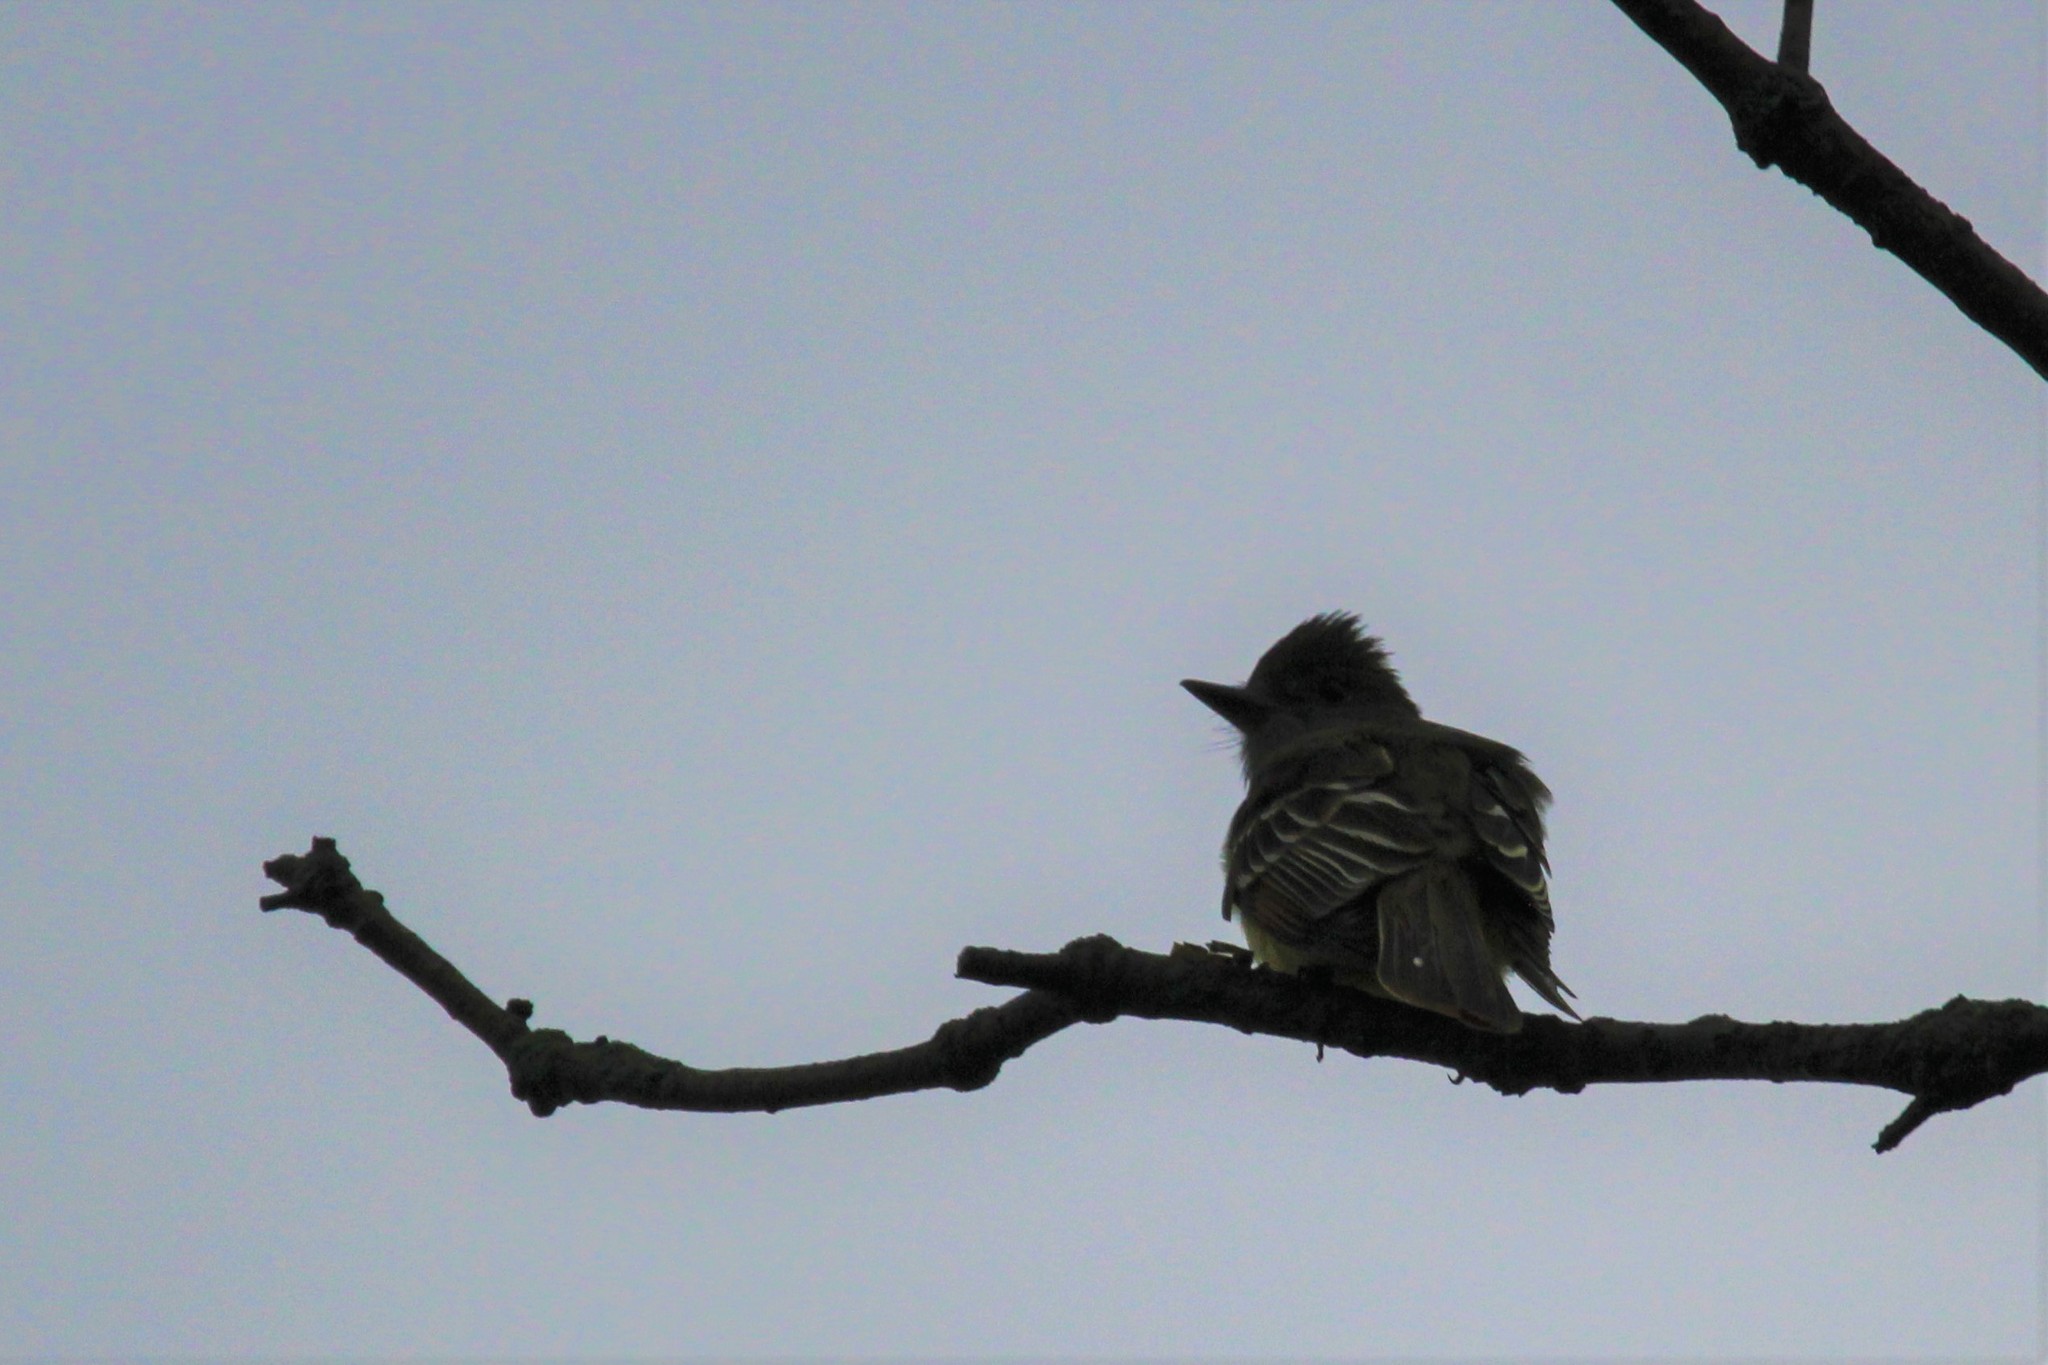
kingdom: Animalia
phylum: Chordata
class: Aves
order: Passeriformes
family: Tyrannidae
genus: Myiarchus
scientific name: Myiarchus crinitus
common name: Great crested flycatcher
